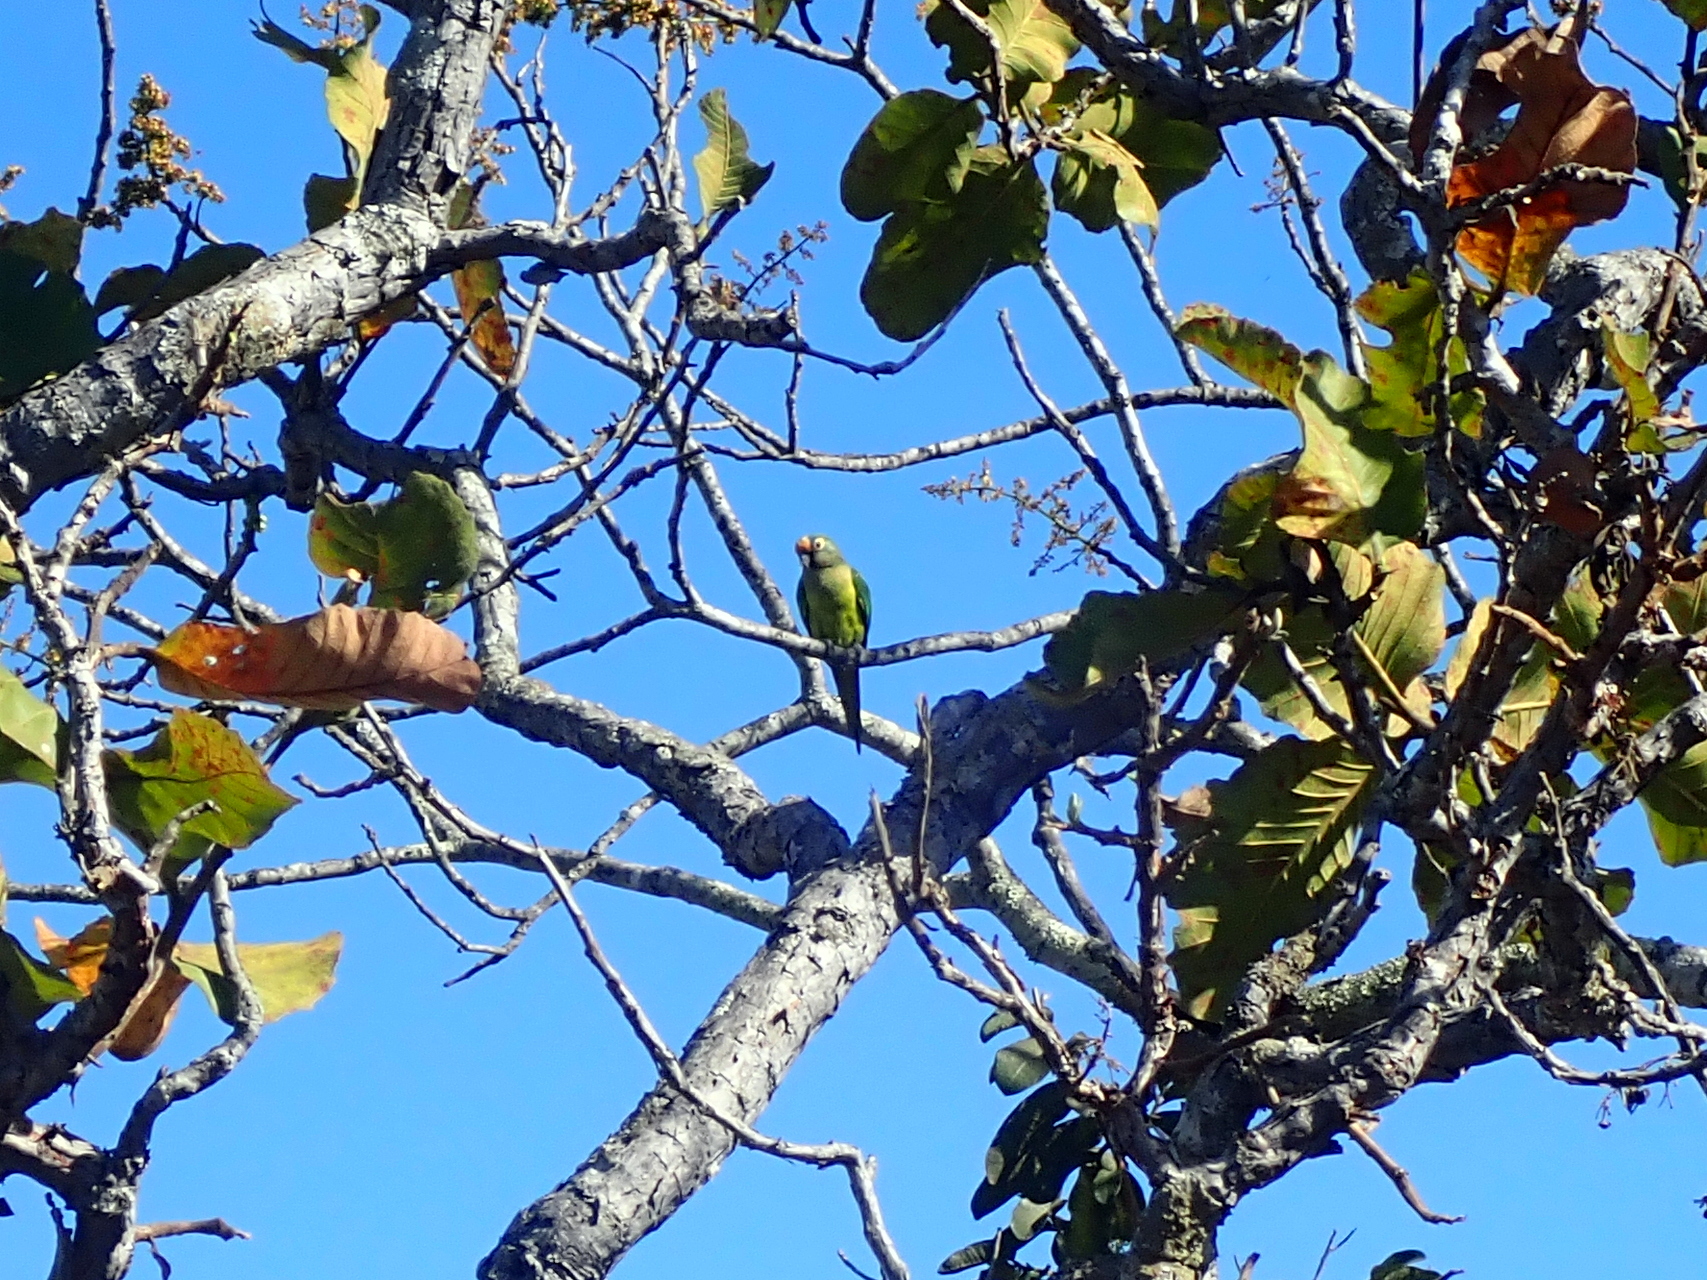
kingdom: Animalia
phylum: Chordata
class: Aves
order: Psittaciformes
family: Psittacidae
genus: Aratinga
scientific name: Aratinga aurea
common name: Peach-fronted parakeet
